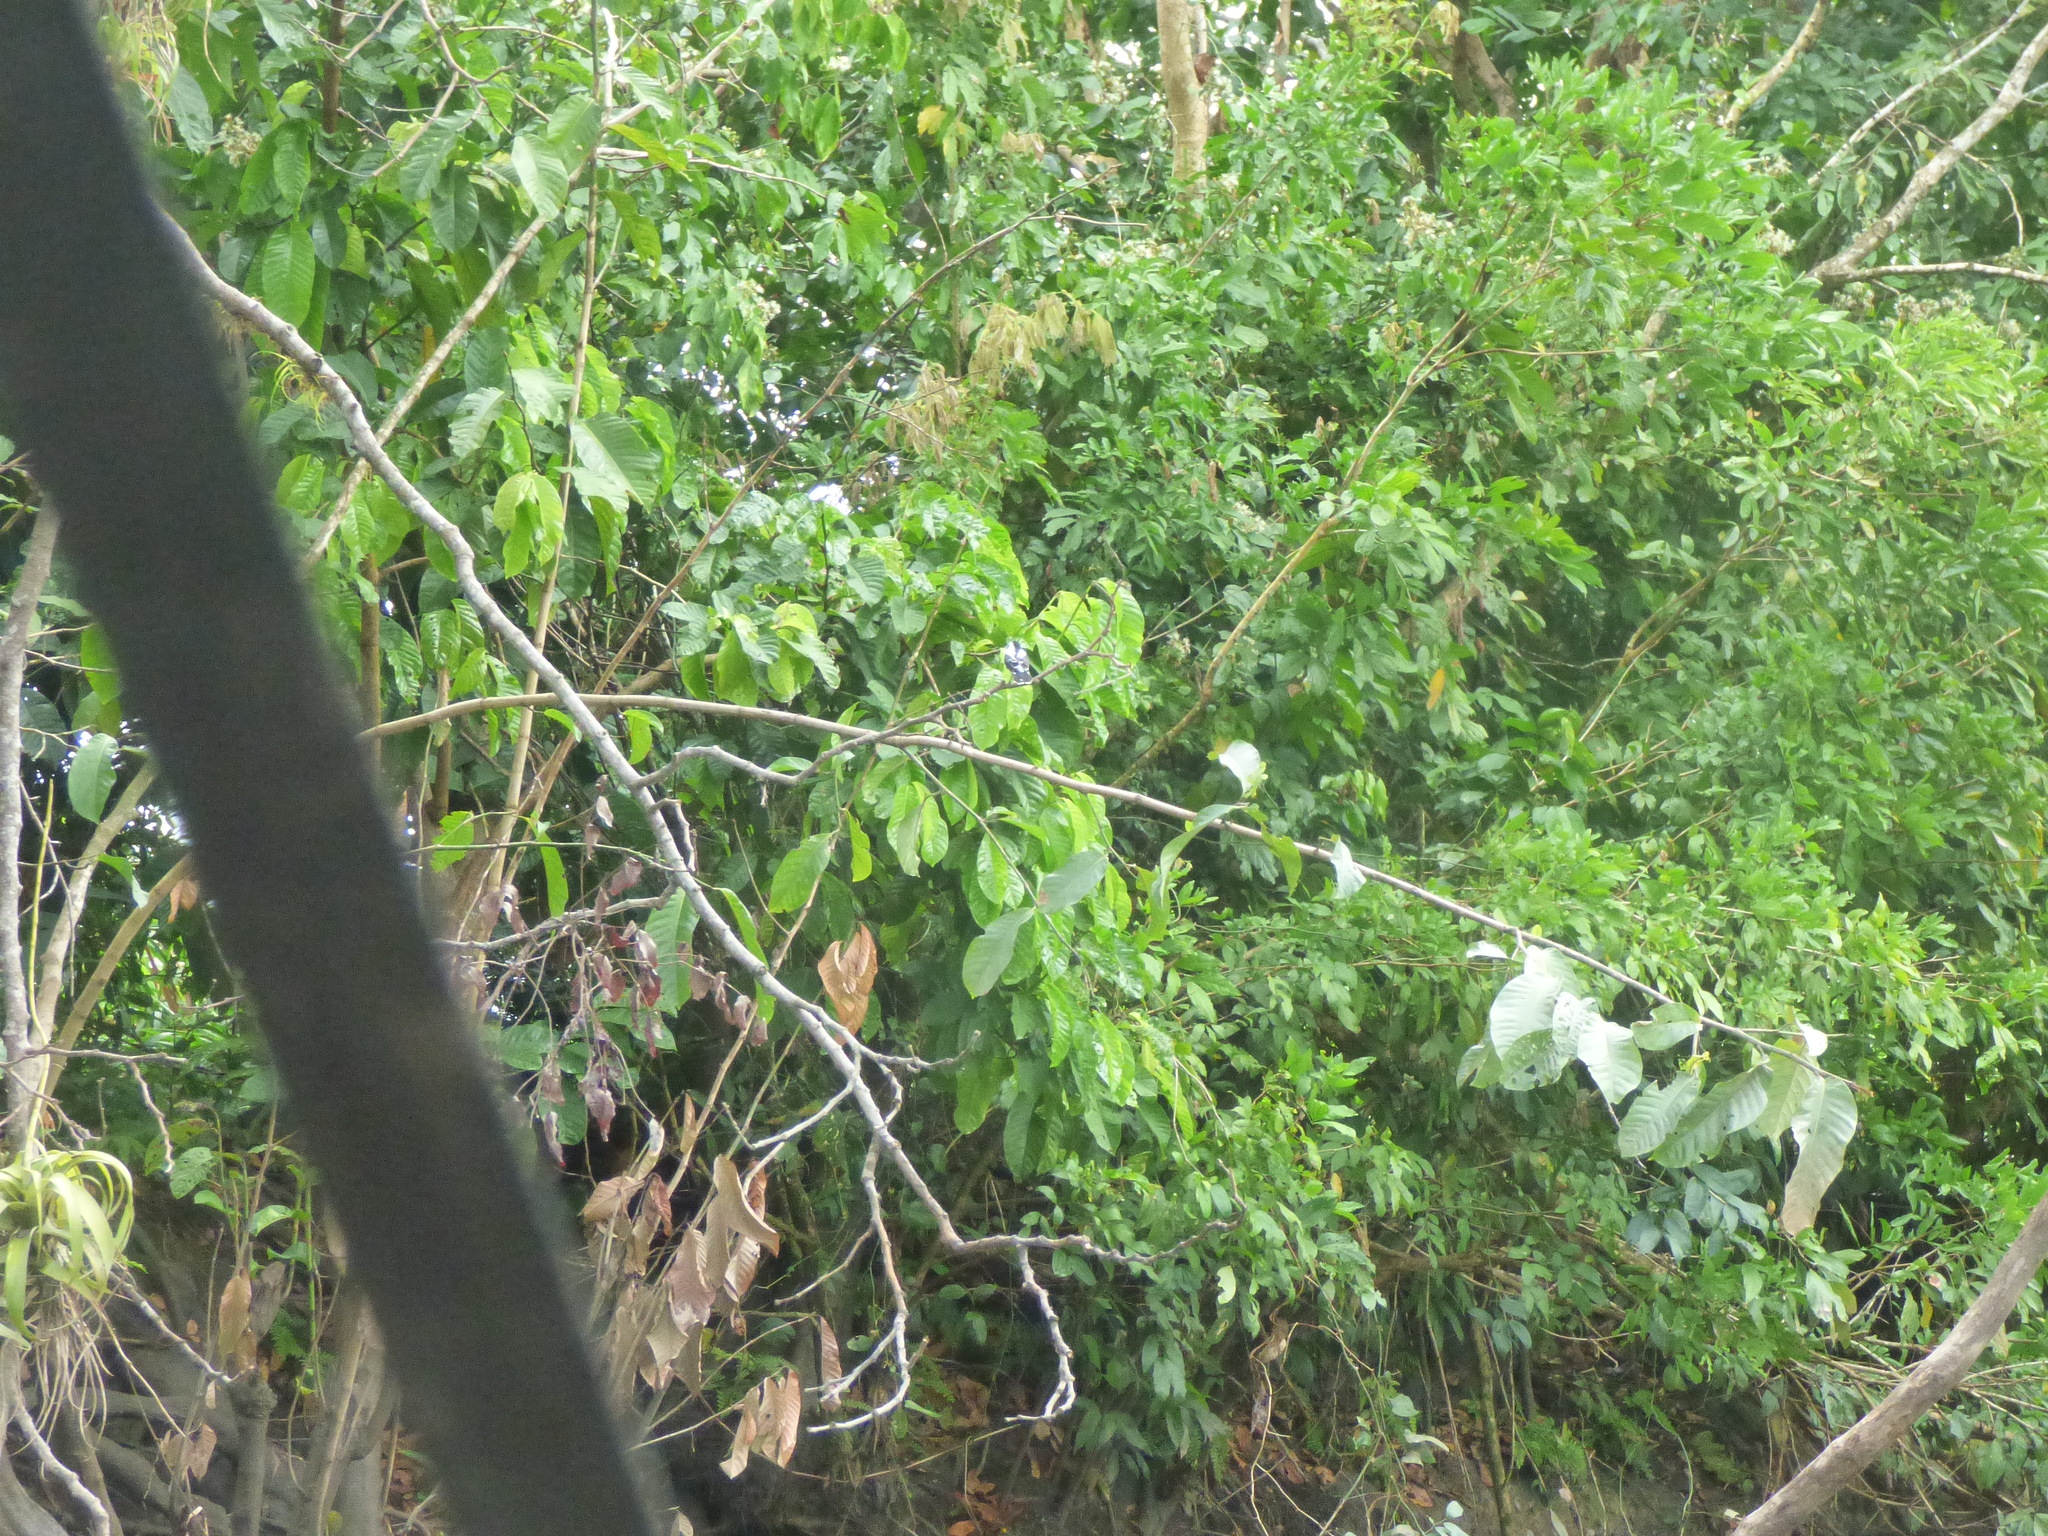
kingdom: Animalia
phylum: Chordata
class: Aves
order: Passeriformes
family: Tyrannidae
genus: Fluvicola
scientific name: Fluvicola pica
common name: Pied water-tyrant
